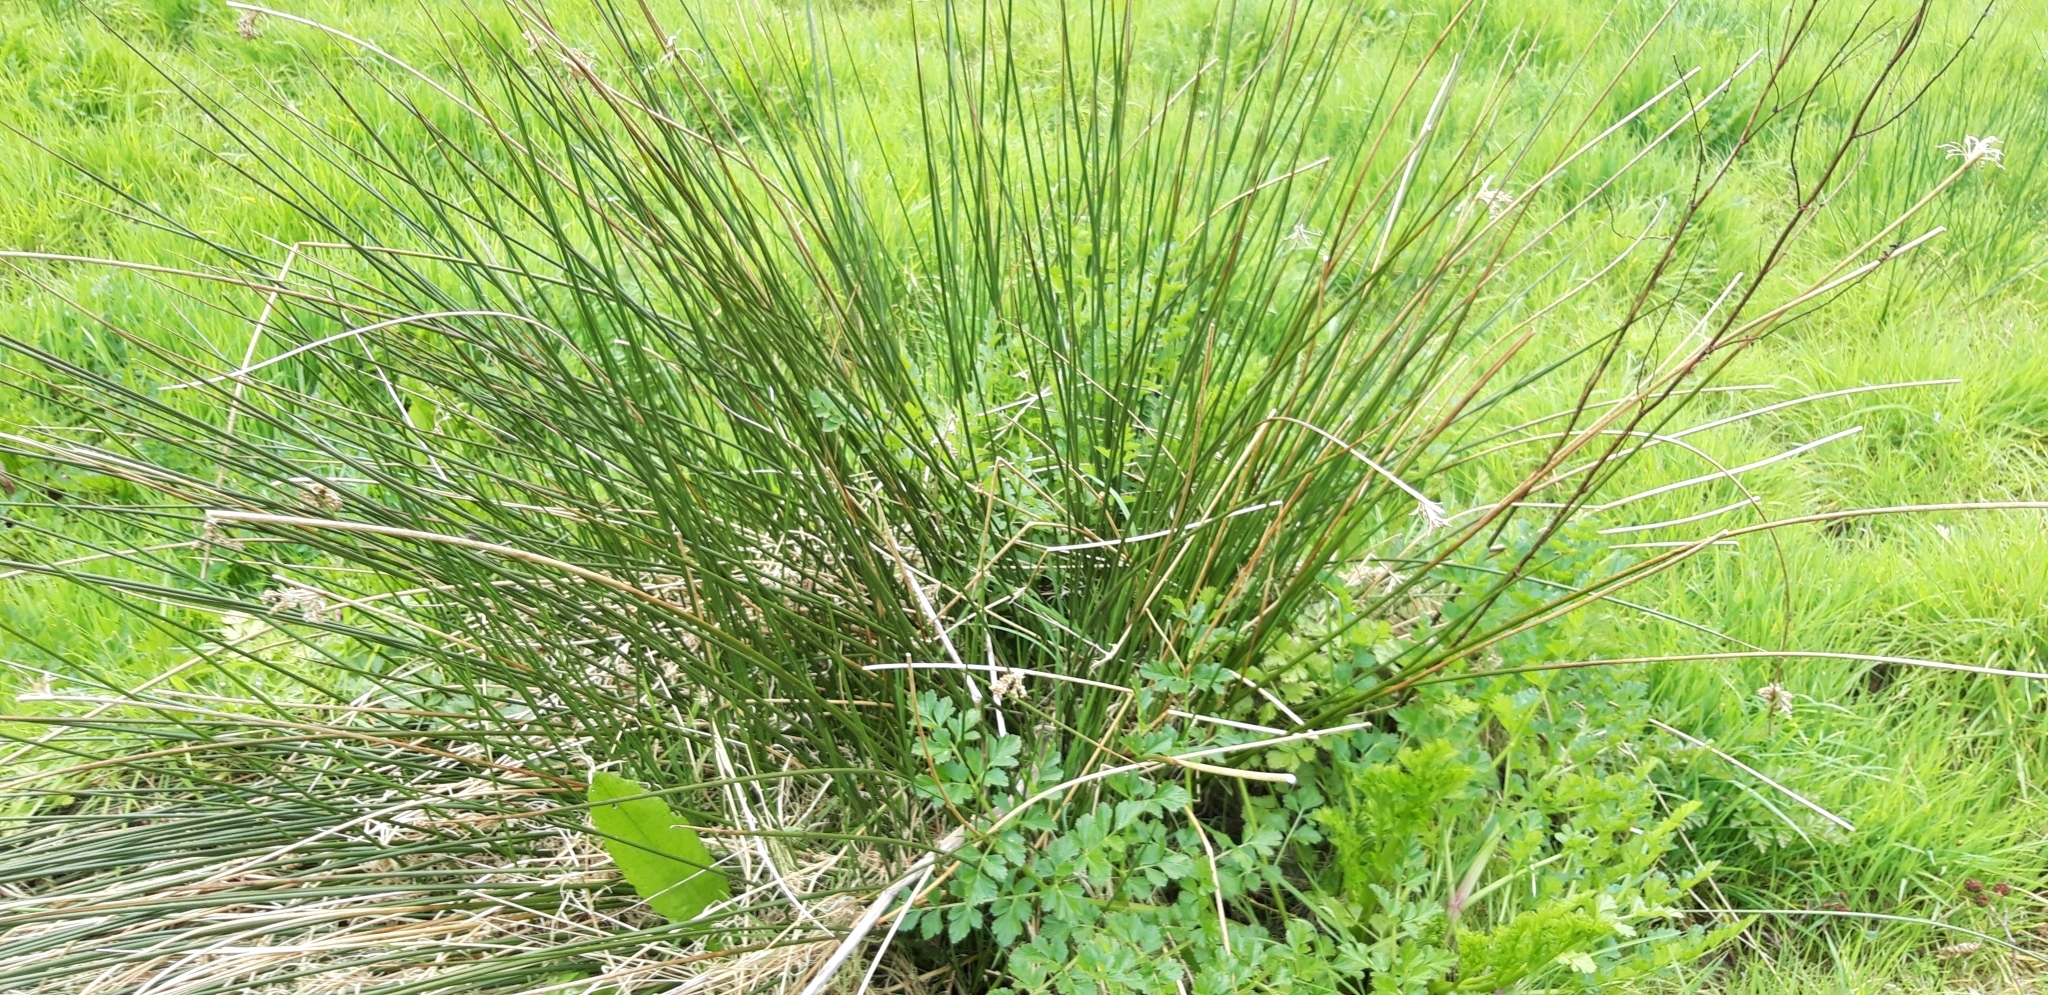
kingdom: Plantae
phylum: Tracheophyta
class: Liliopsida
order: Poales
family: Juncaceae
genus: Juncus
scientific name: Juncus effusus
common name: Soft rush
